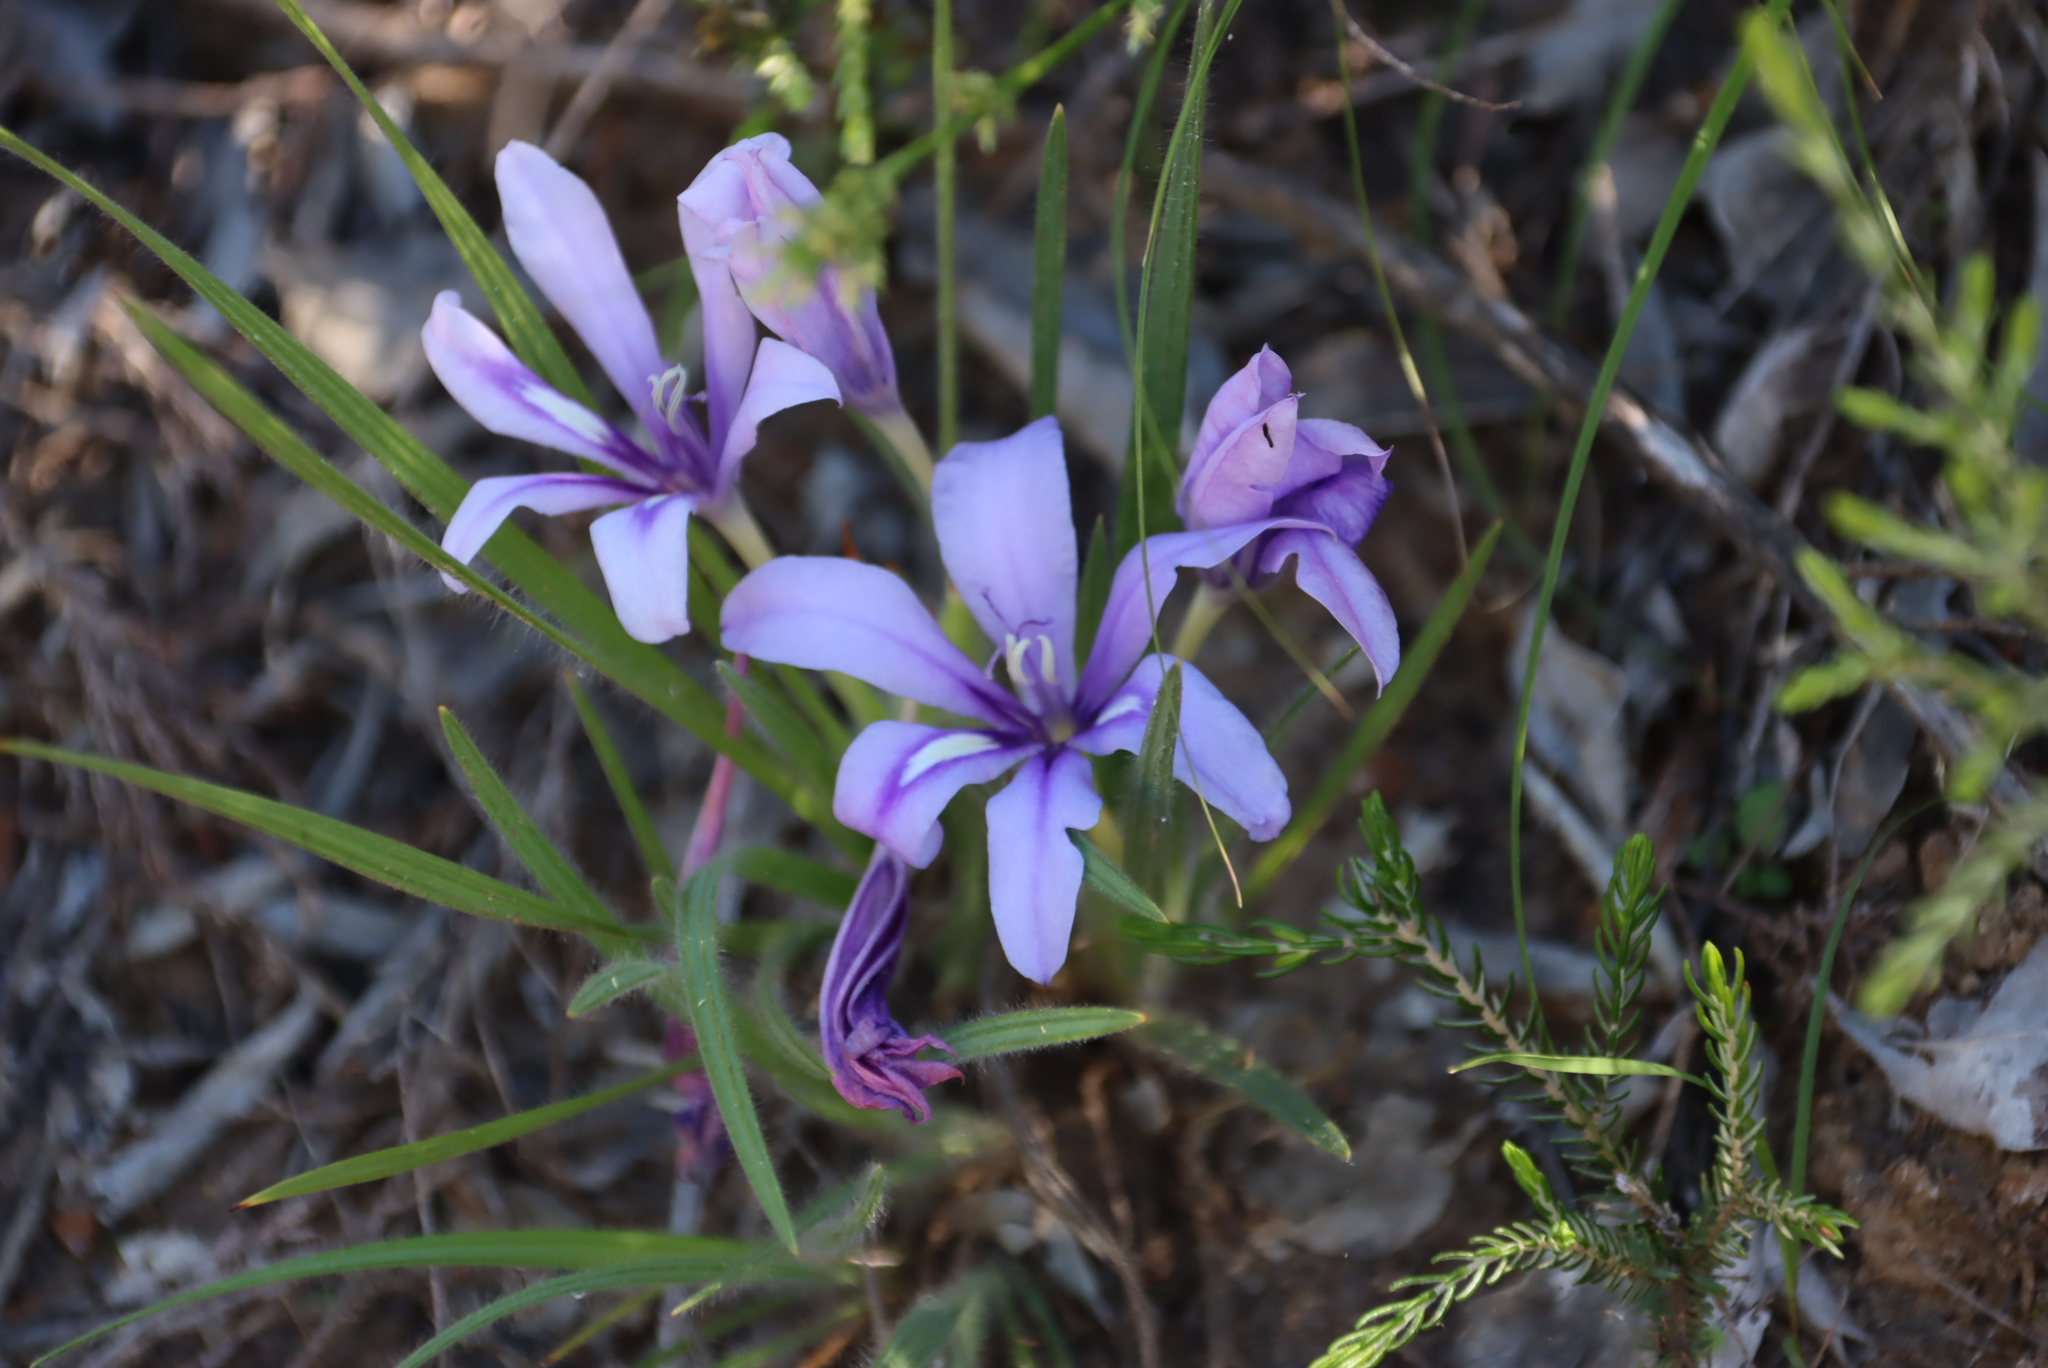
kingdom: Plantae
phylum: Tracheophyta
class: Liliopsida
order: Asparagales
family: Iridaceae
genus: Babiana
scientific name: Babiana sambucina
